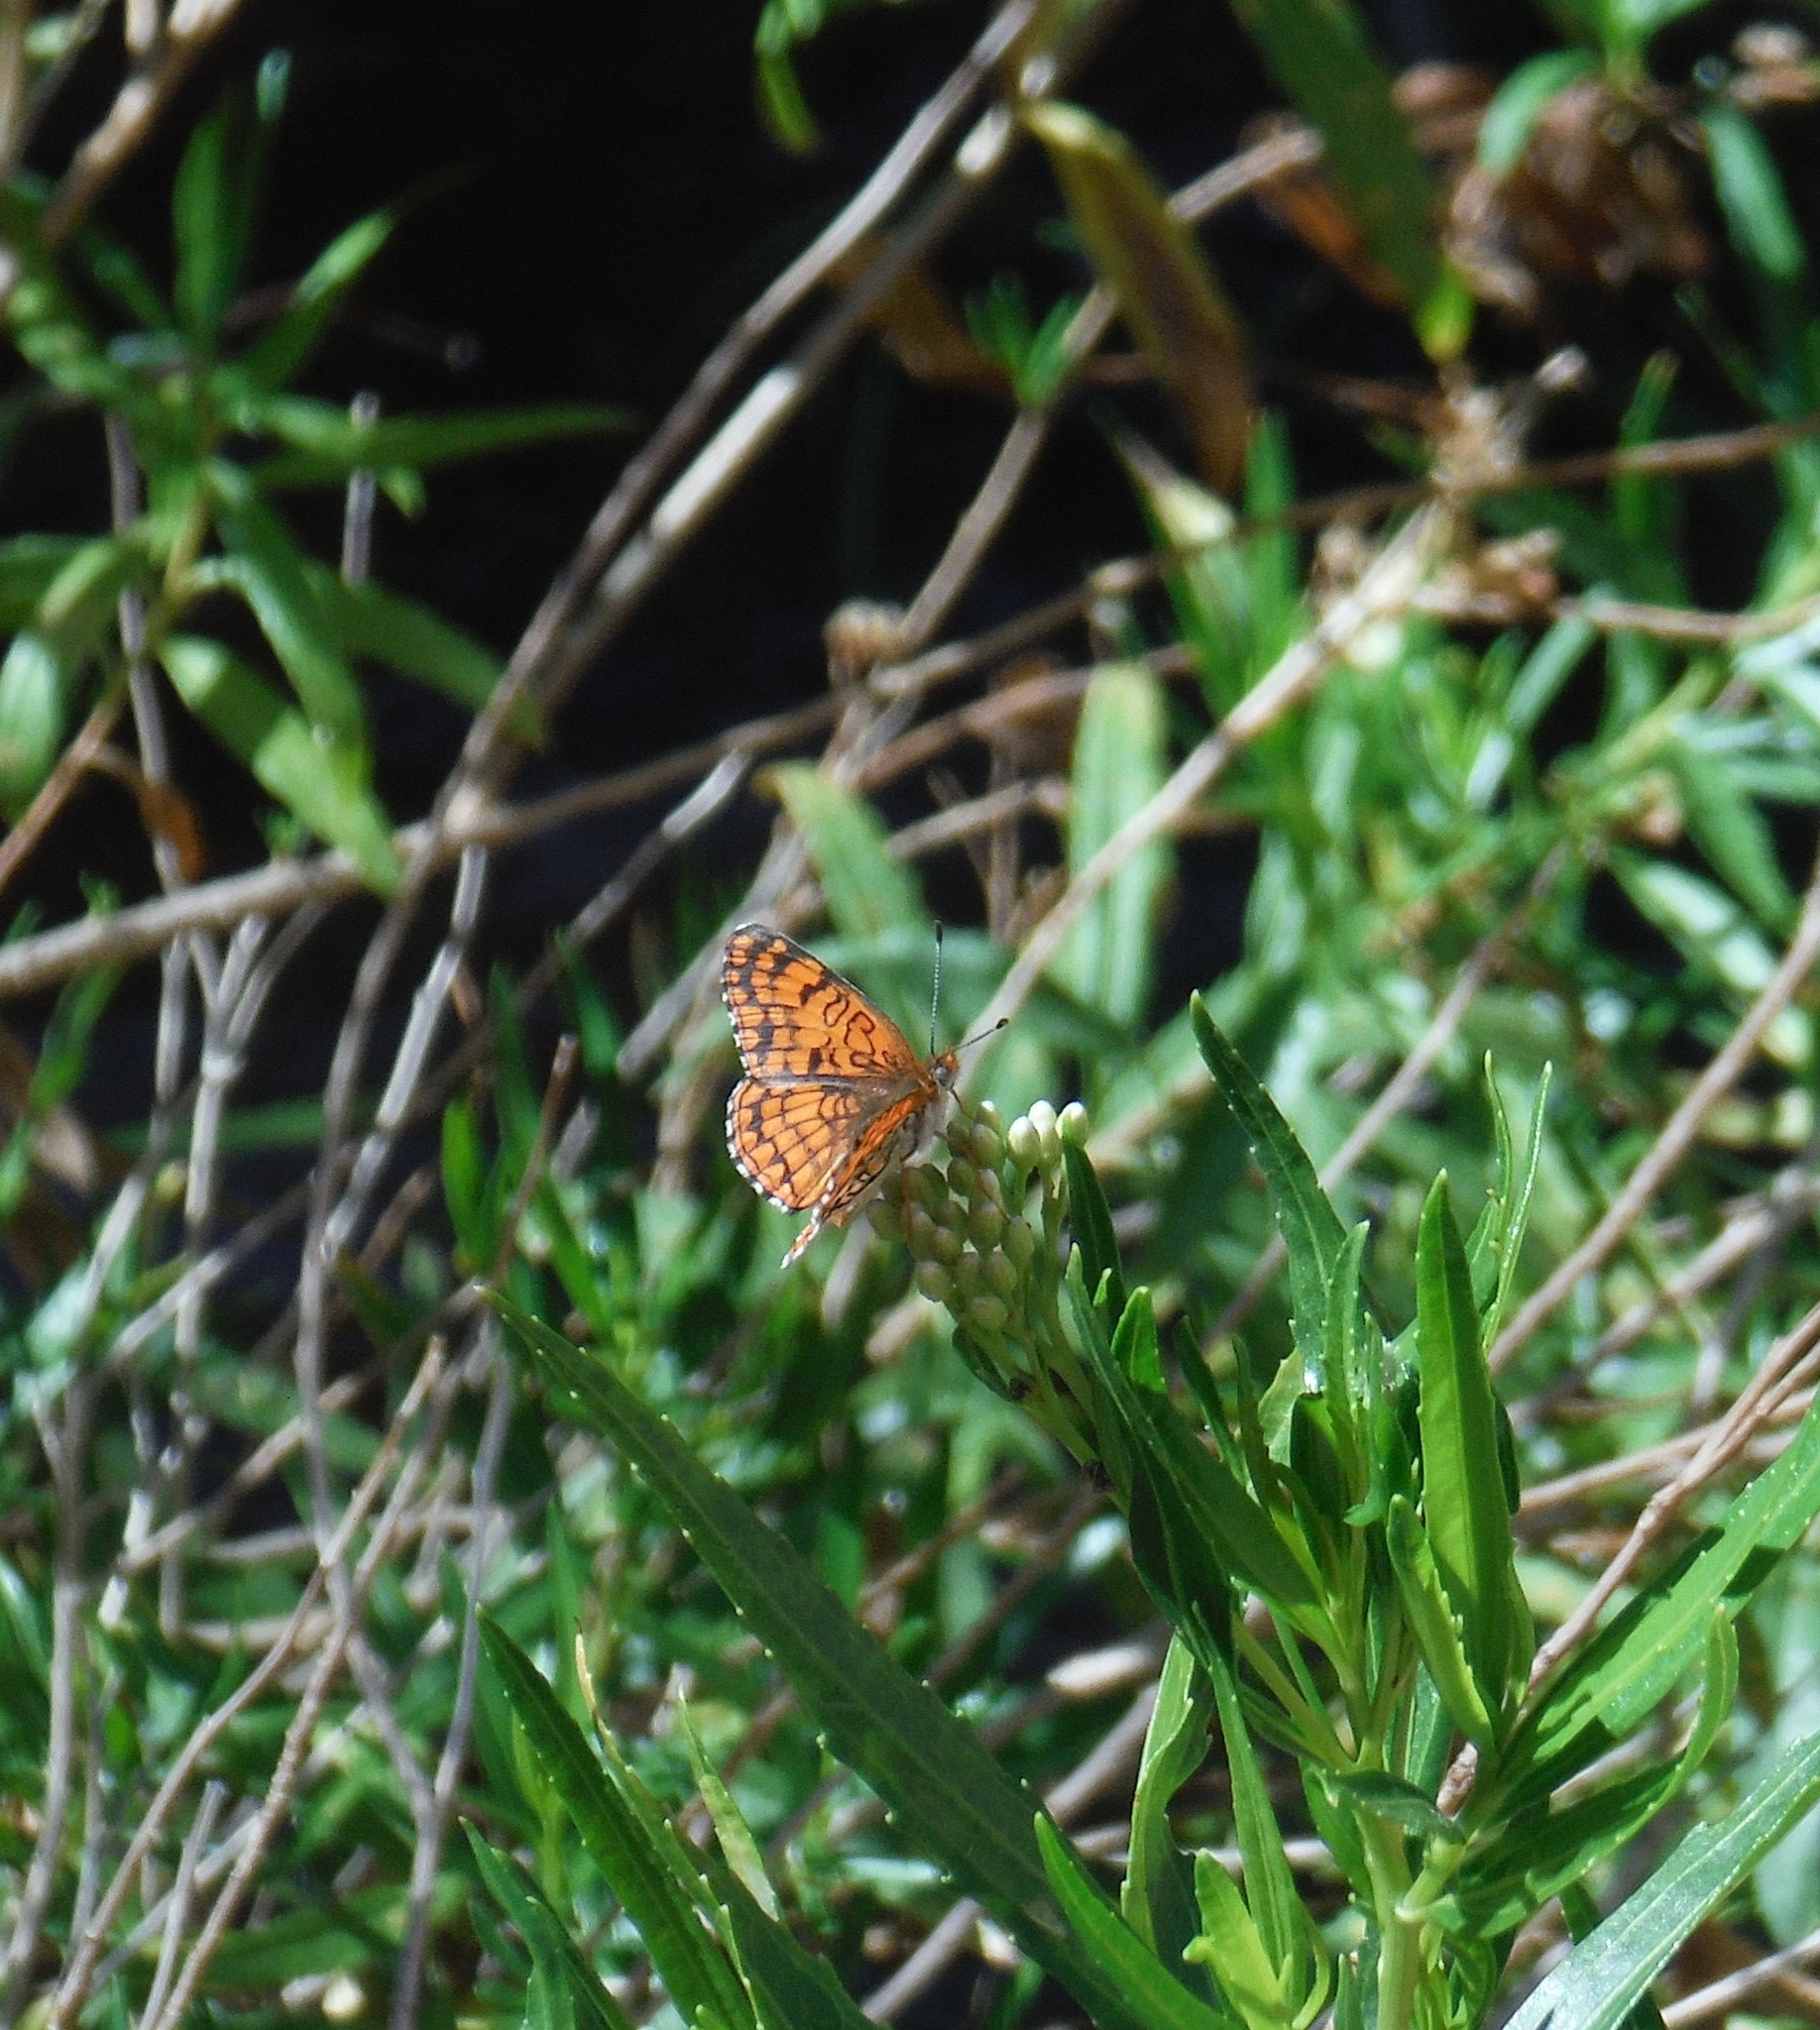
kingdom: Animalia
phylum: Arthropoda
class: Insecta
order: Lepidoptera
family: Nymphalidae
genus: Chlosyne
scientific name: Chlosyne acastus
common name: Sagebrush checkerspot
